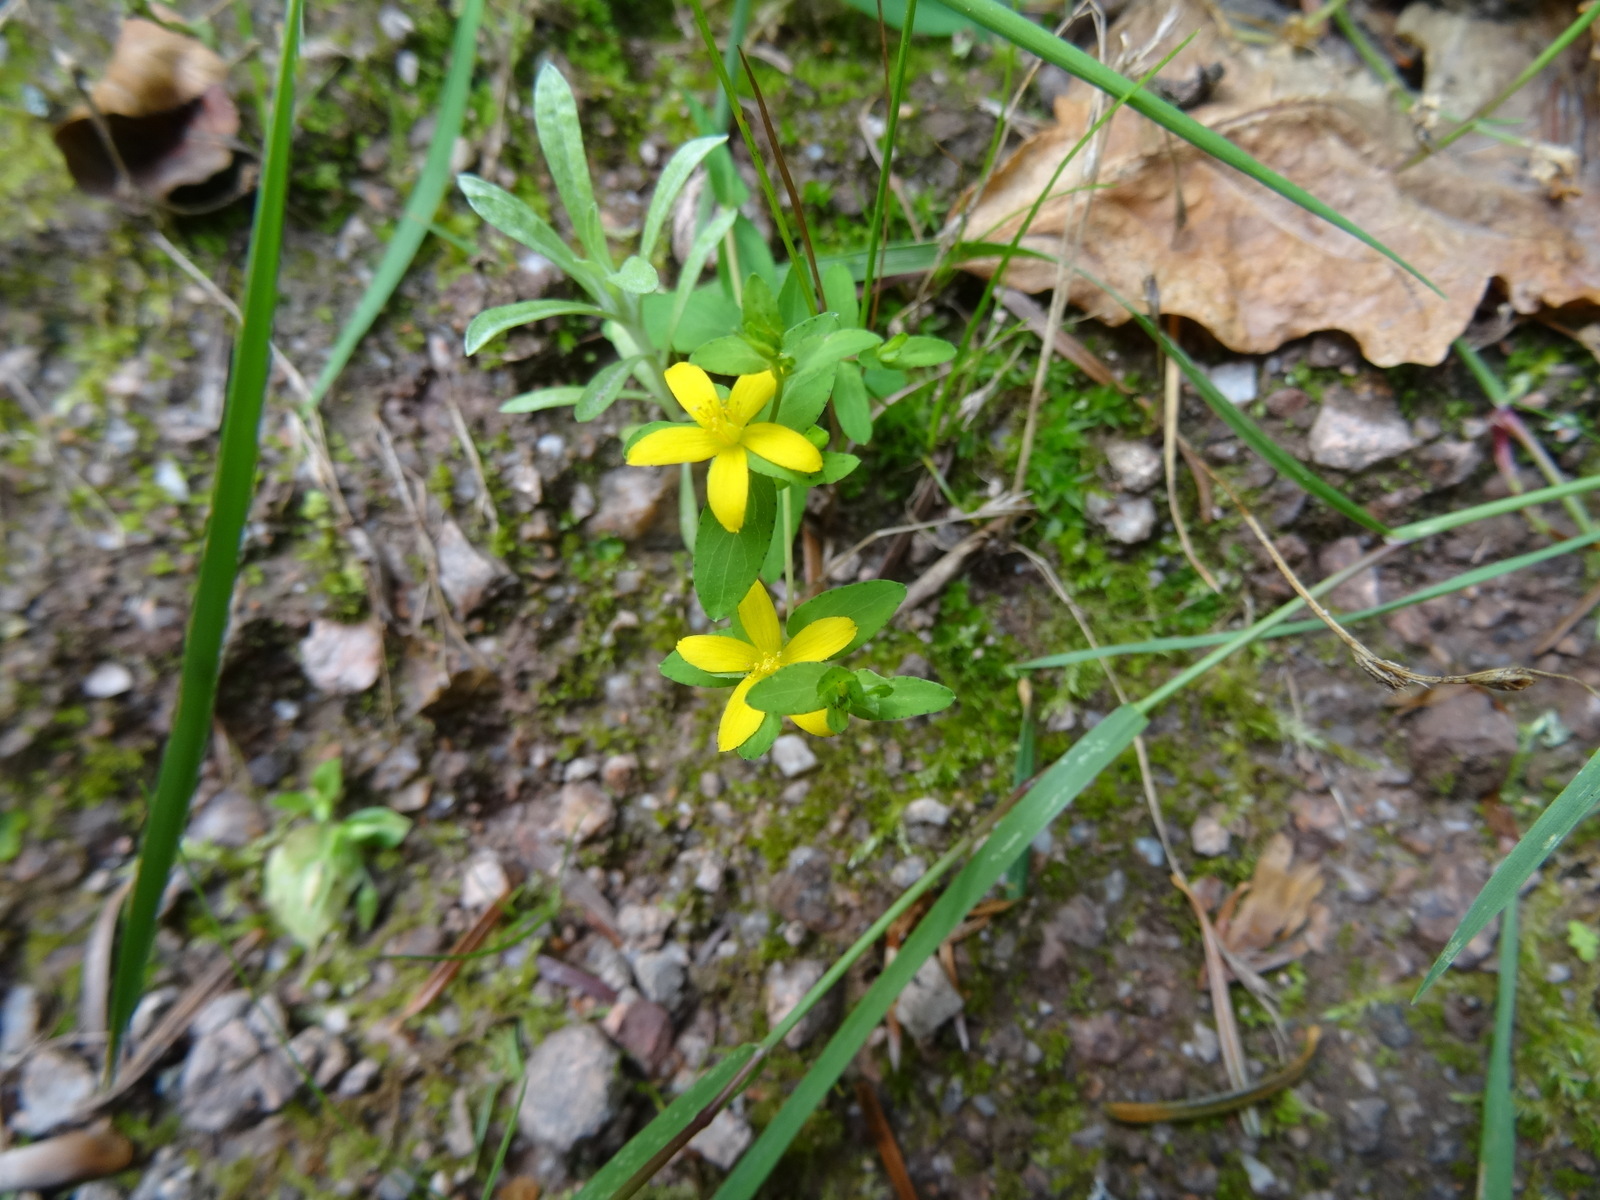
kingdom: Plantae
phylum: Tracheophyta
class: Magnoliopsida
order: Malpighiales
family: Hypericaceae
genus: Hypericum
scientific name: Hypericum humifusum
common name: Trailing st. john's-wort
